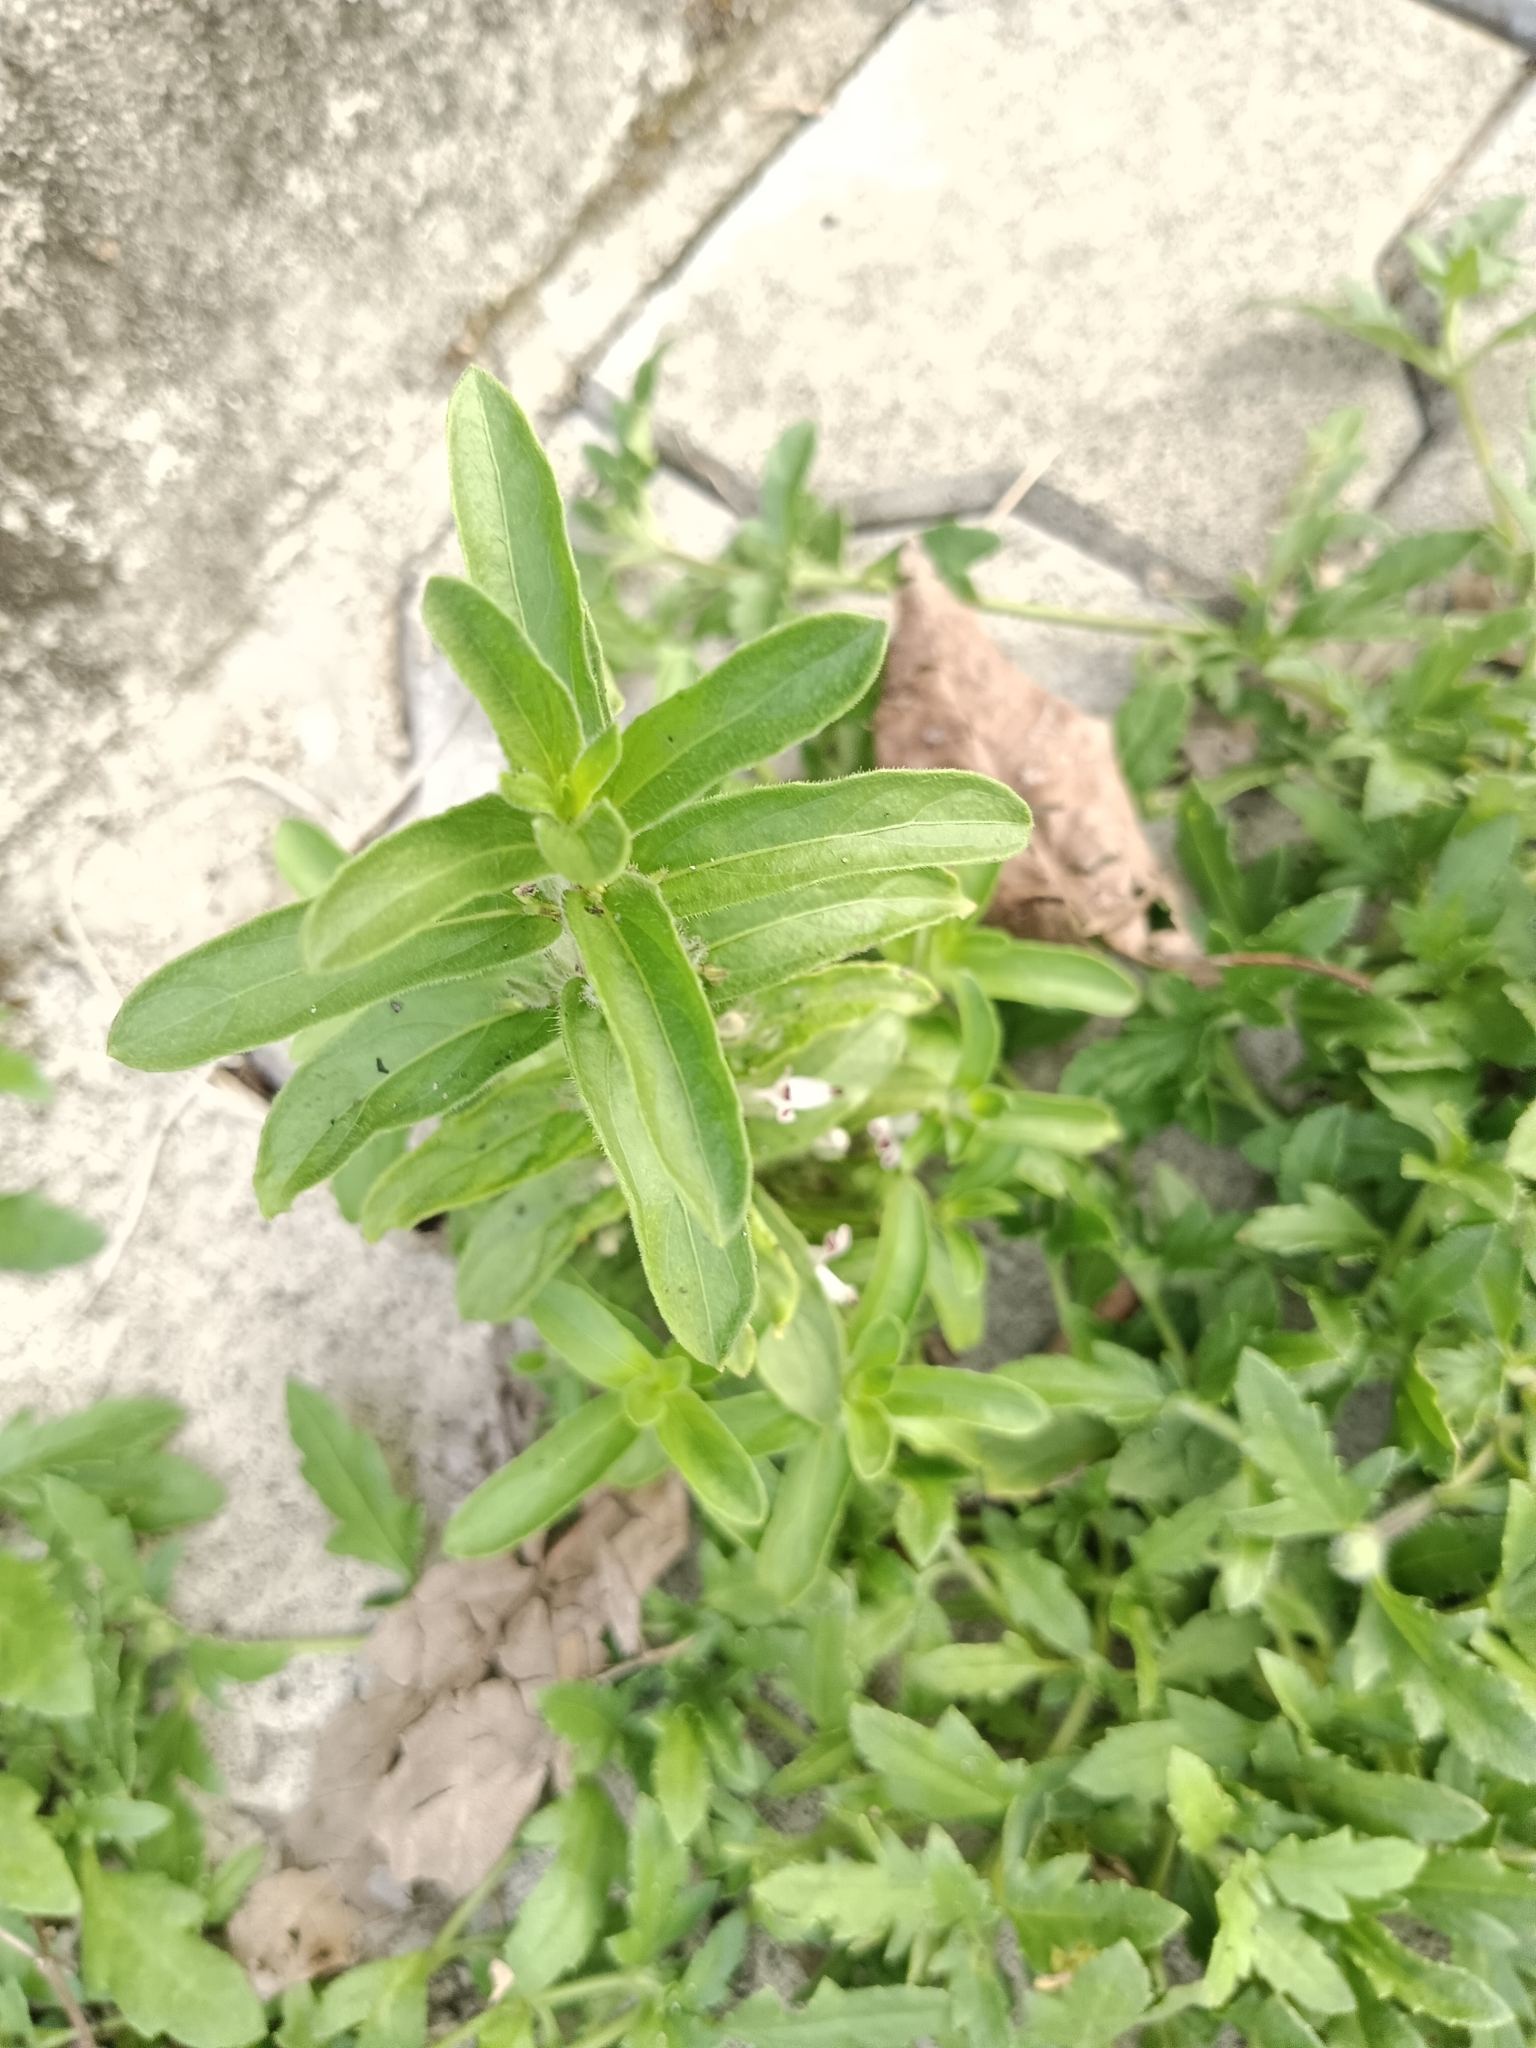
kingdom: Plantae
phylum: Tracheophyta
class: Magnoliopsida
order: Lamiales
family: Acanthaceae
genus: Andrographis
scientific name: Andrographis echioides
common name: False waterwillow
